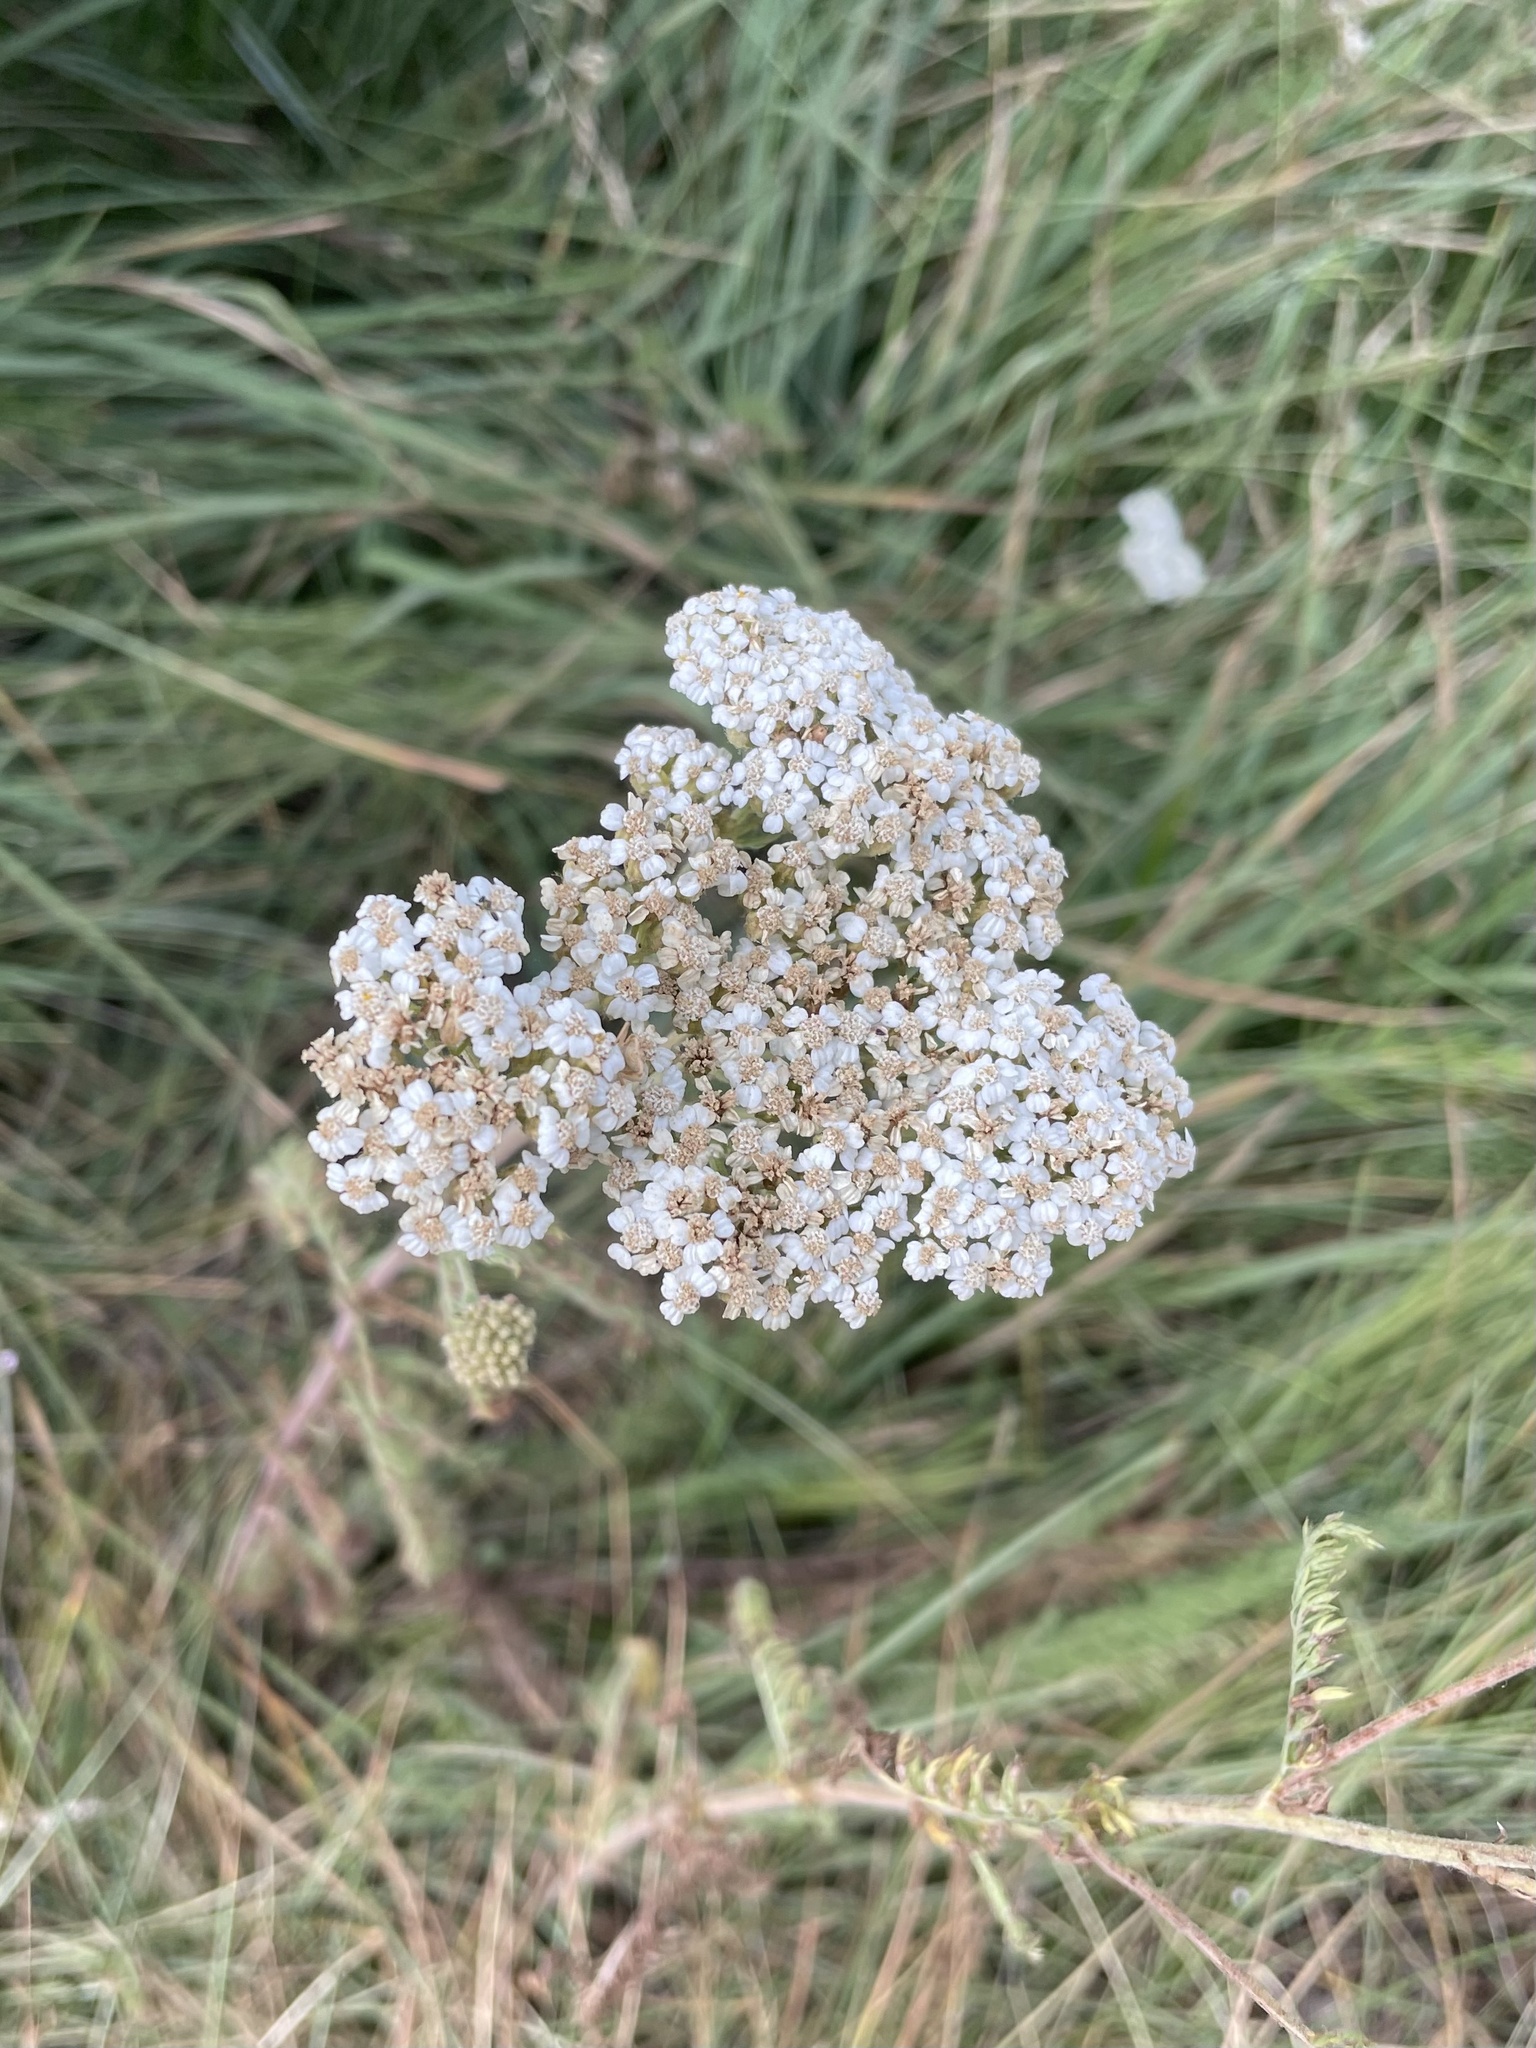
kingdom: Plantae
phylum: Tracheophyta
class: Magnoliopsida
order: Asterales
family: Asteraceae
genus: Achillea
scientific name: Achillea millefolium
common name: Yarrow
